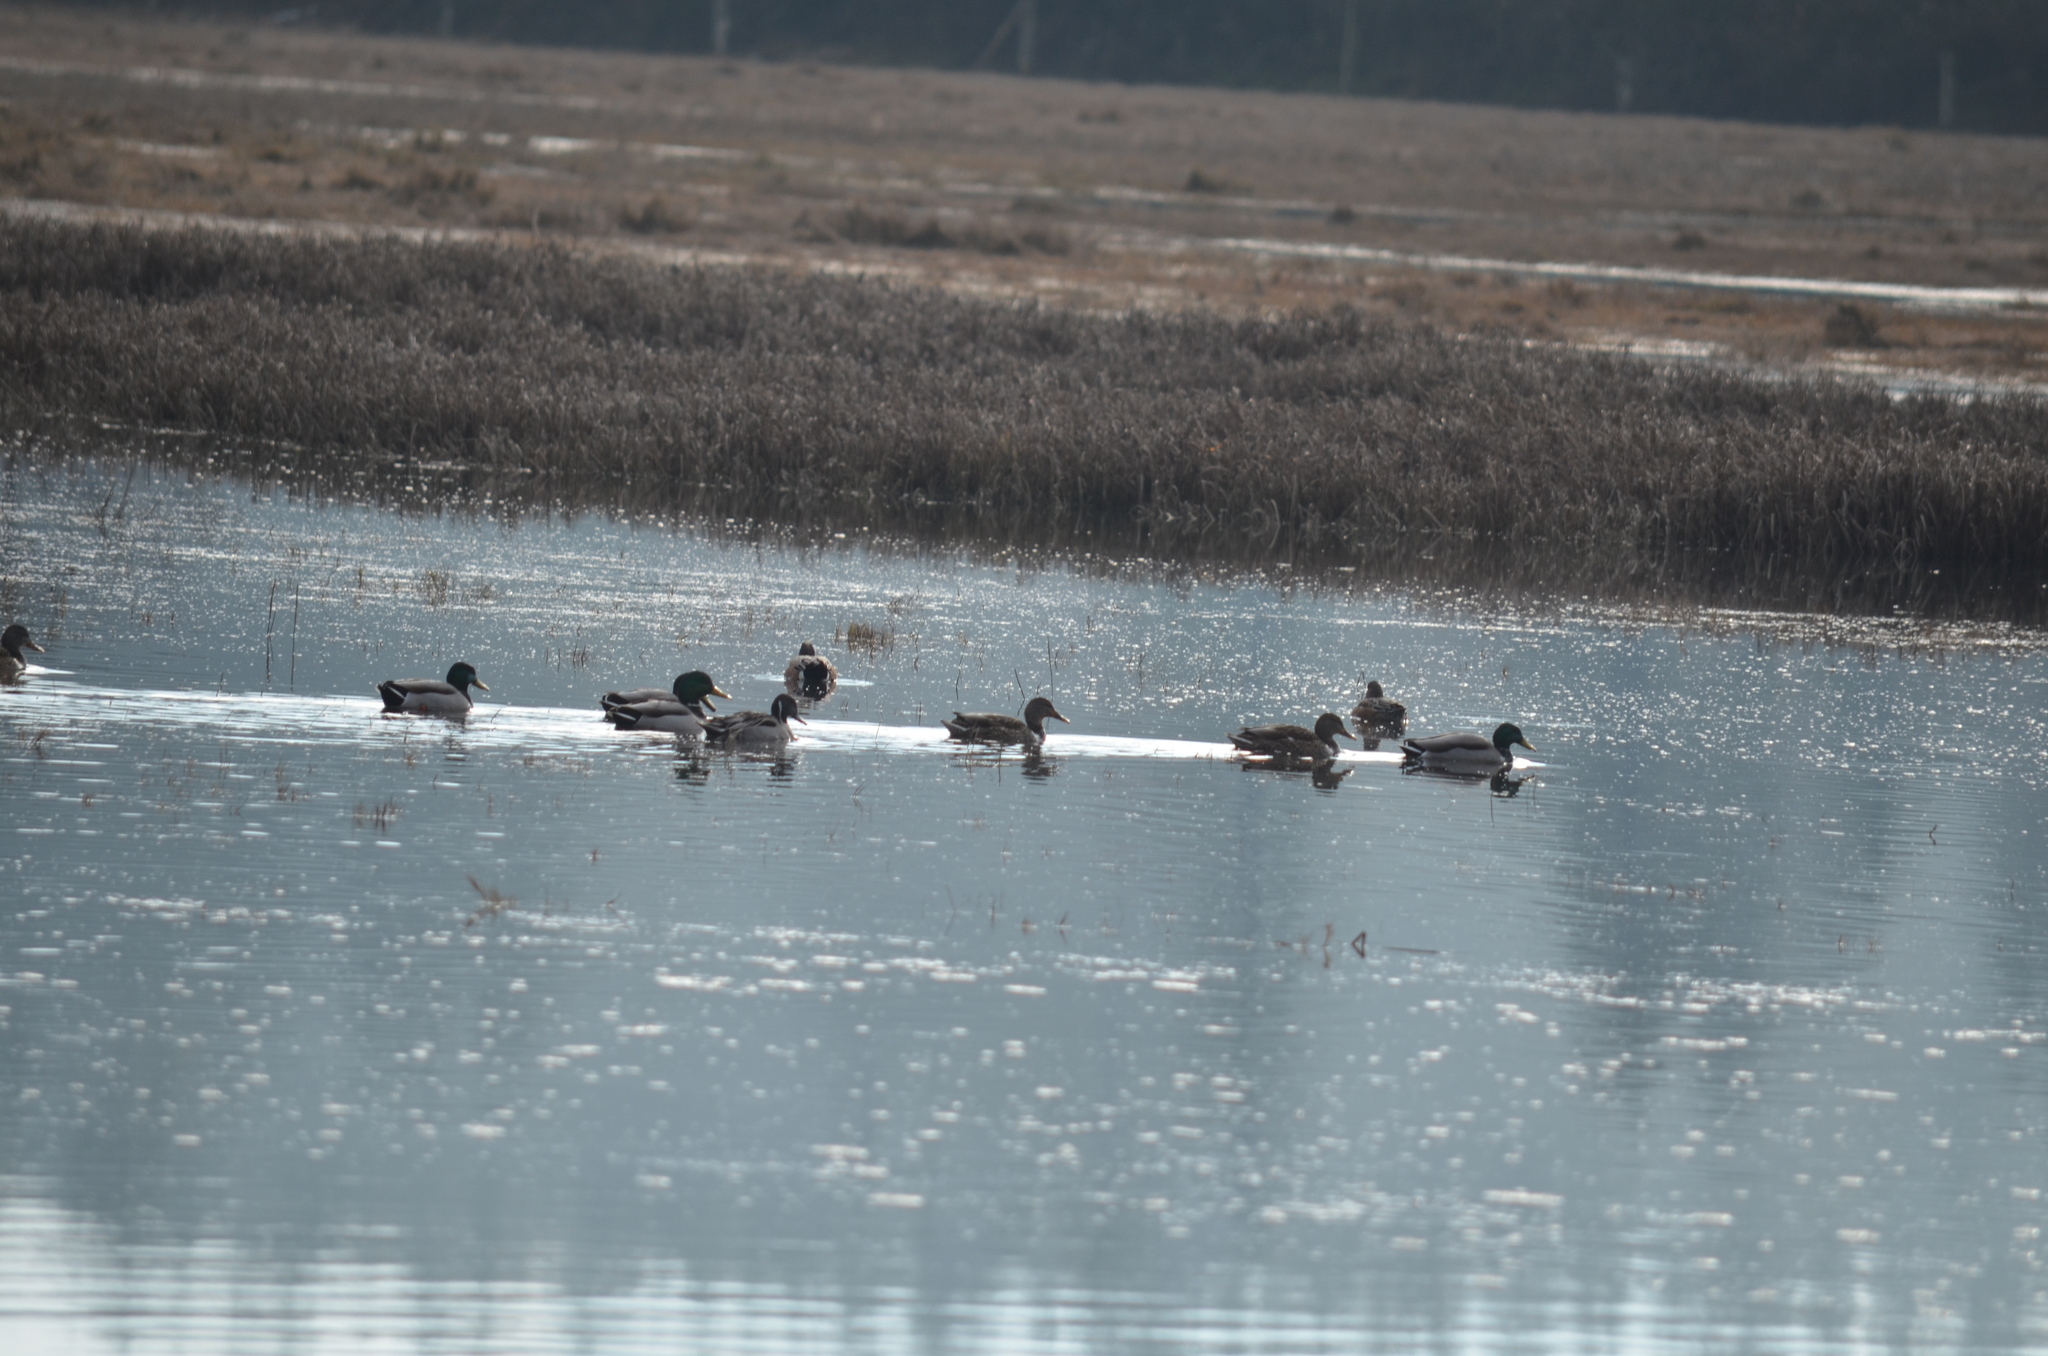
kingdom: Animalia
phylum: Chordata
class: Aves
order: Anseriformes
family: Anatidae
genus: Anas
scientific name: Anas platyrhynchos
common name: Mallard
